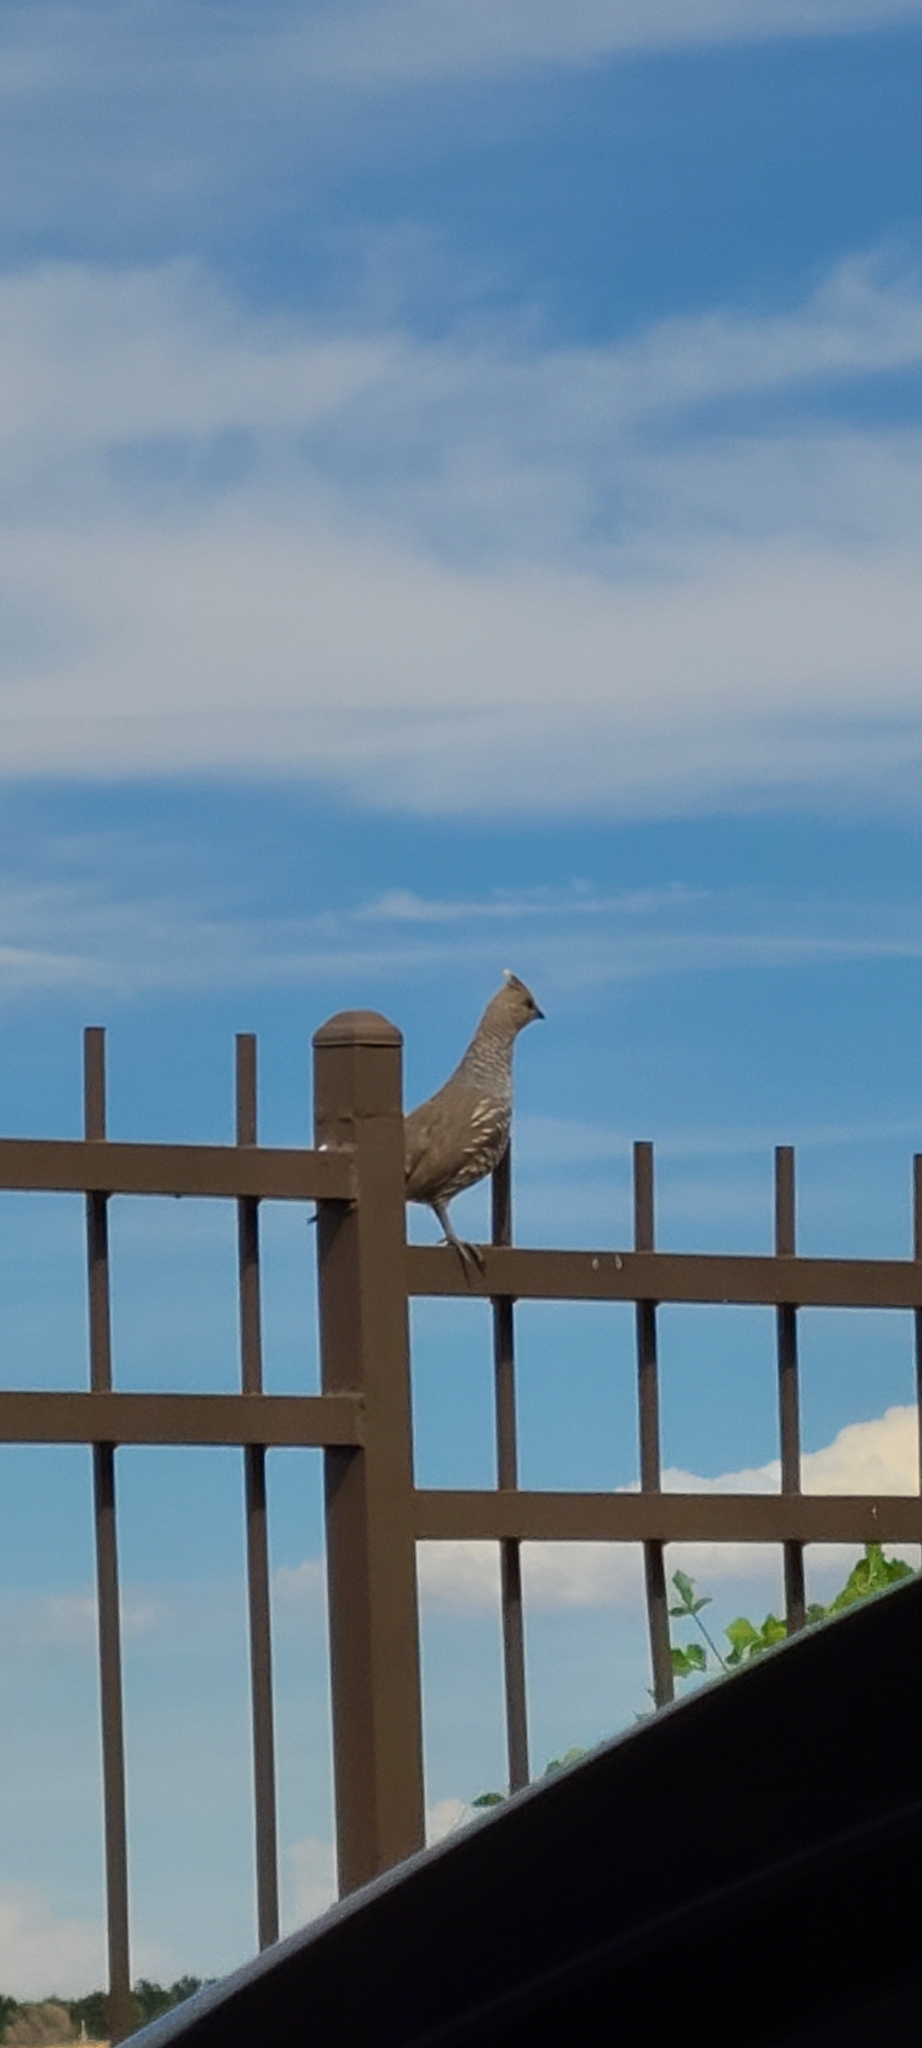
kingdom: Animalia
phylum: Chordata
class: Aves
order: Galliformes
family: Odontophoridae
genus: Callipepla
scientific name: Callipepla squamata
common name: Scaled quail
